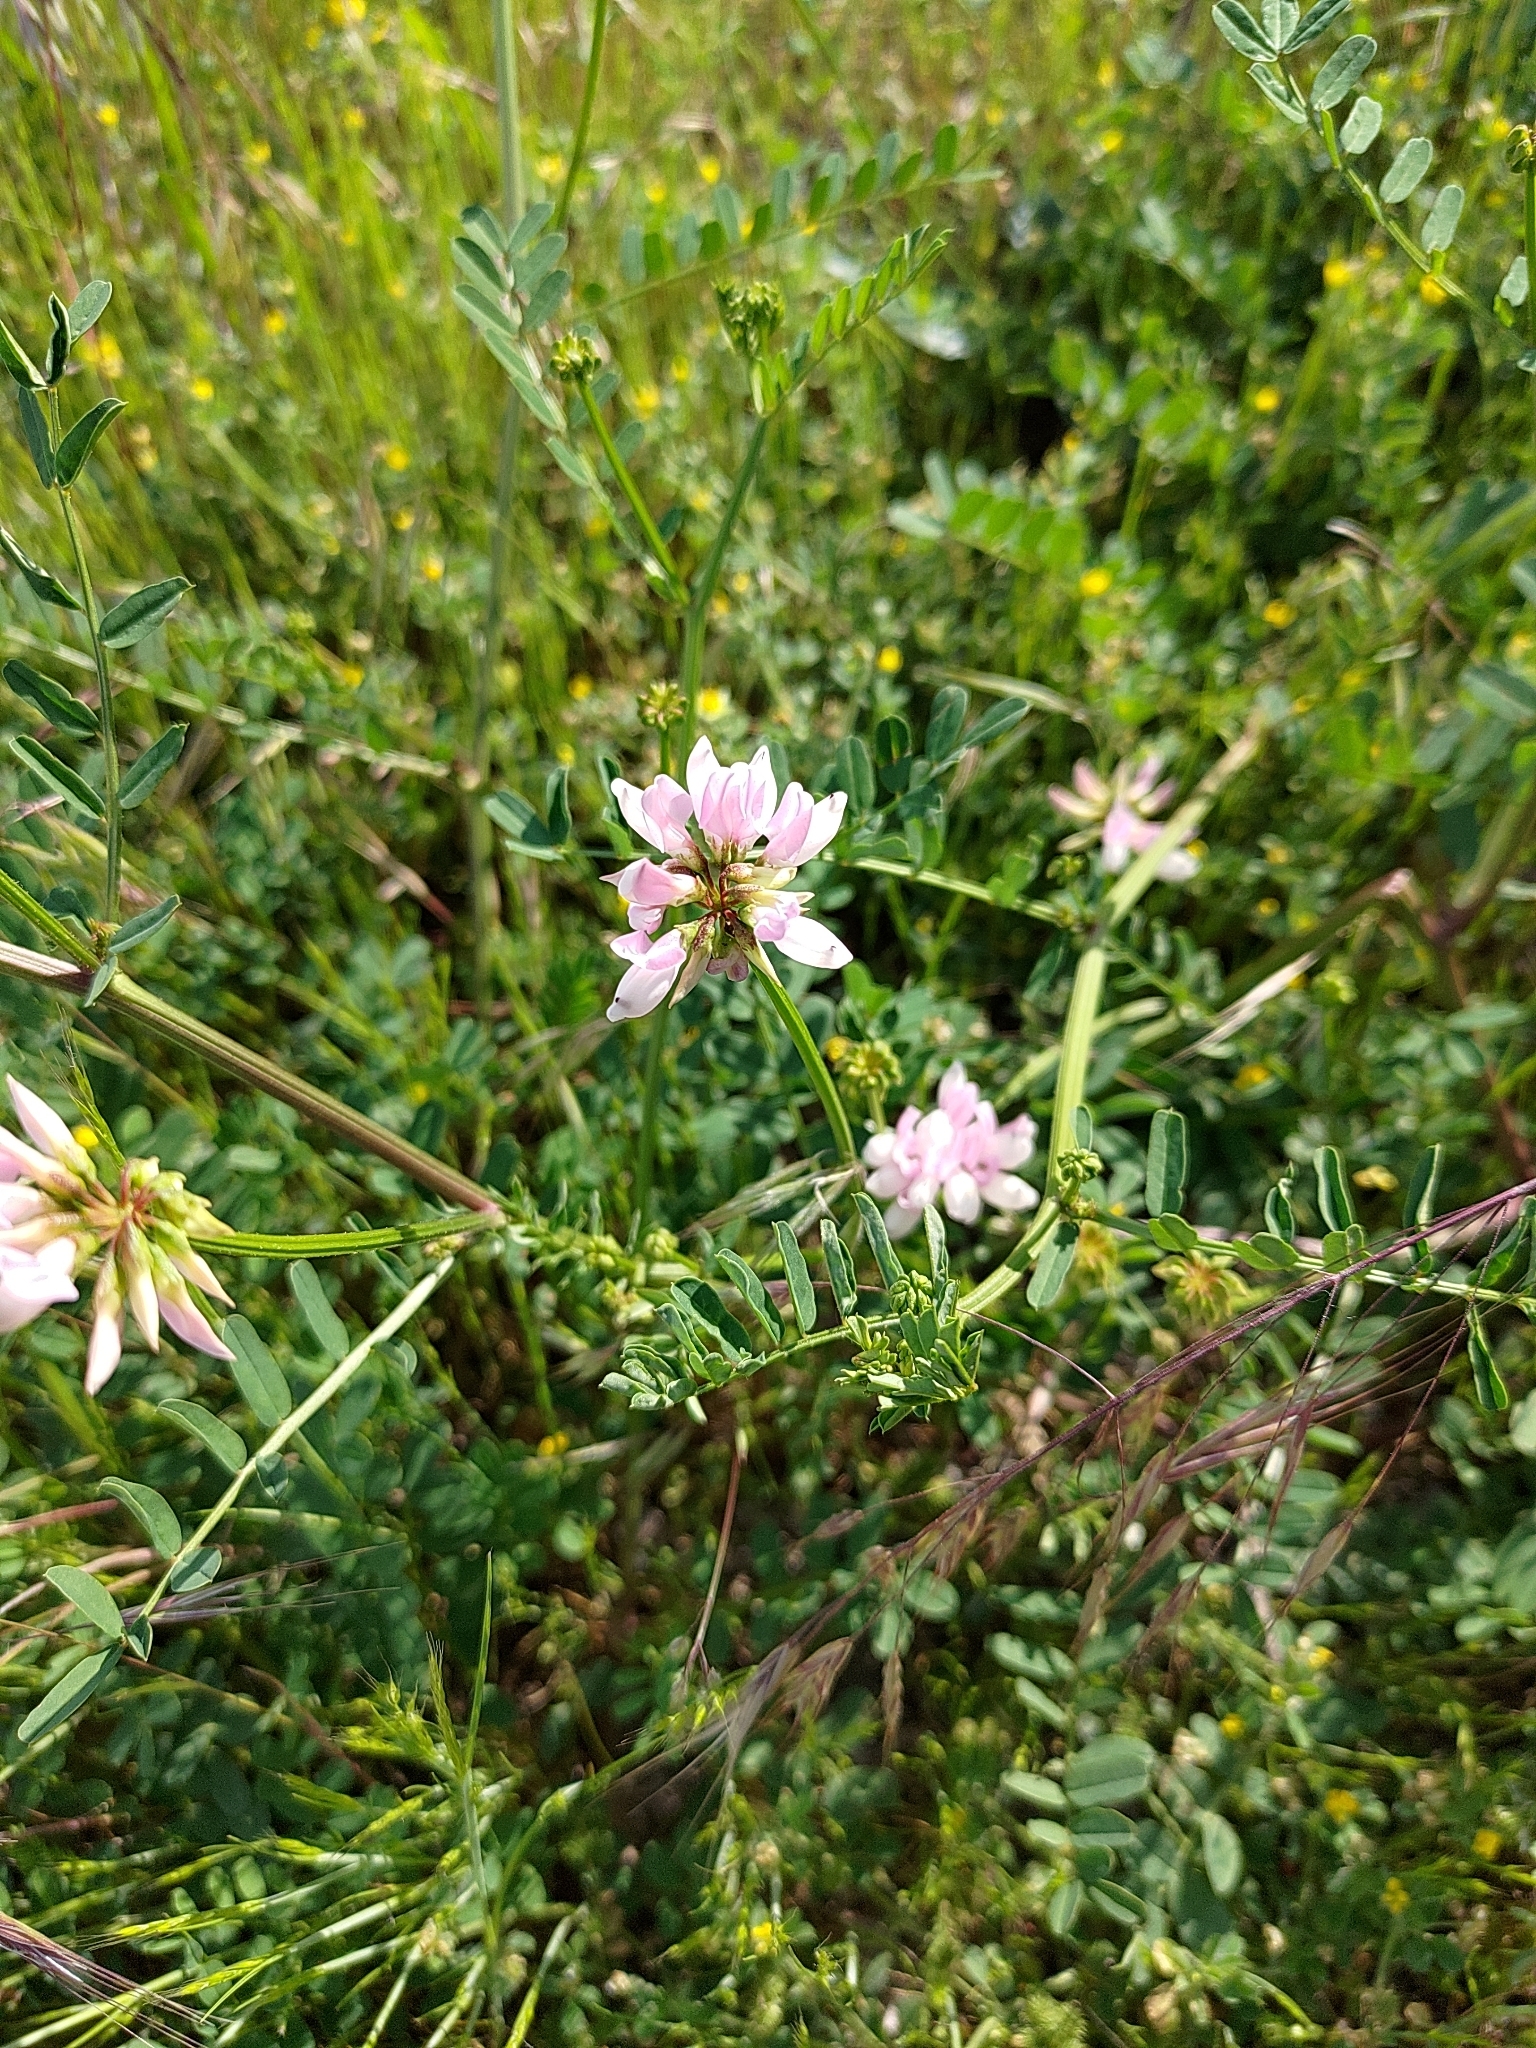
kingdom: Plantae
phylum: Tracheophyta
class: Magnoliopsida
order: Fabales
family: Fabaceae
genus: Coronilla
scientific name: Coronilla varia
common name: Crownvetch
